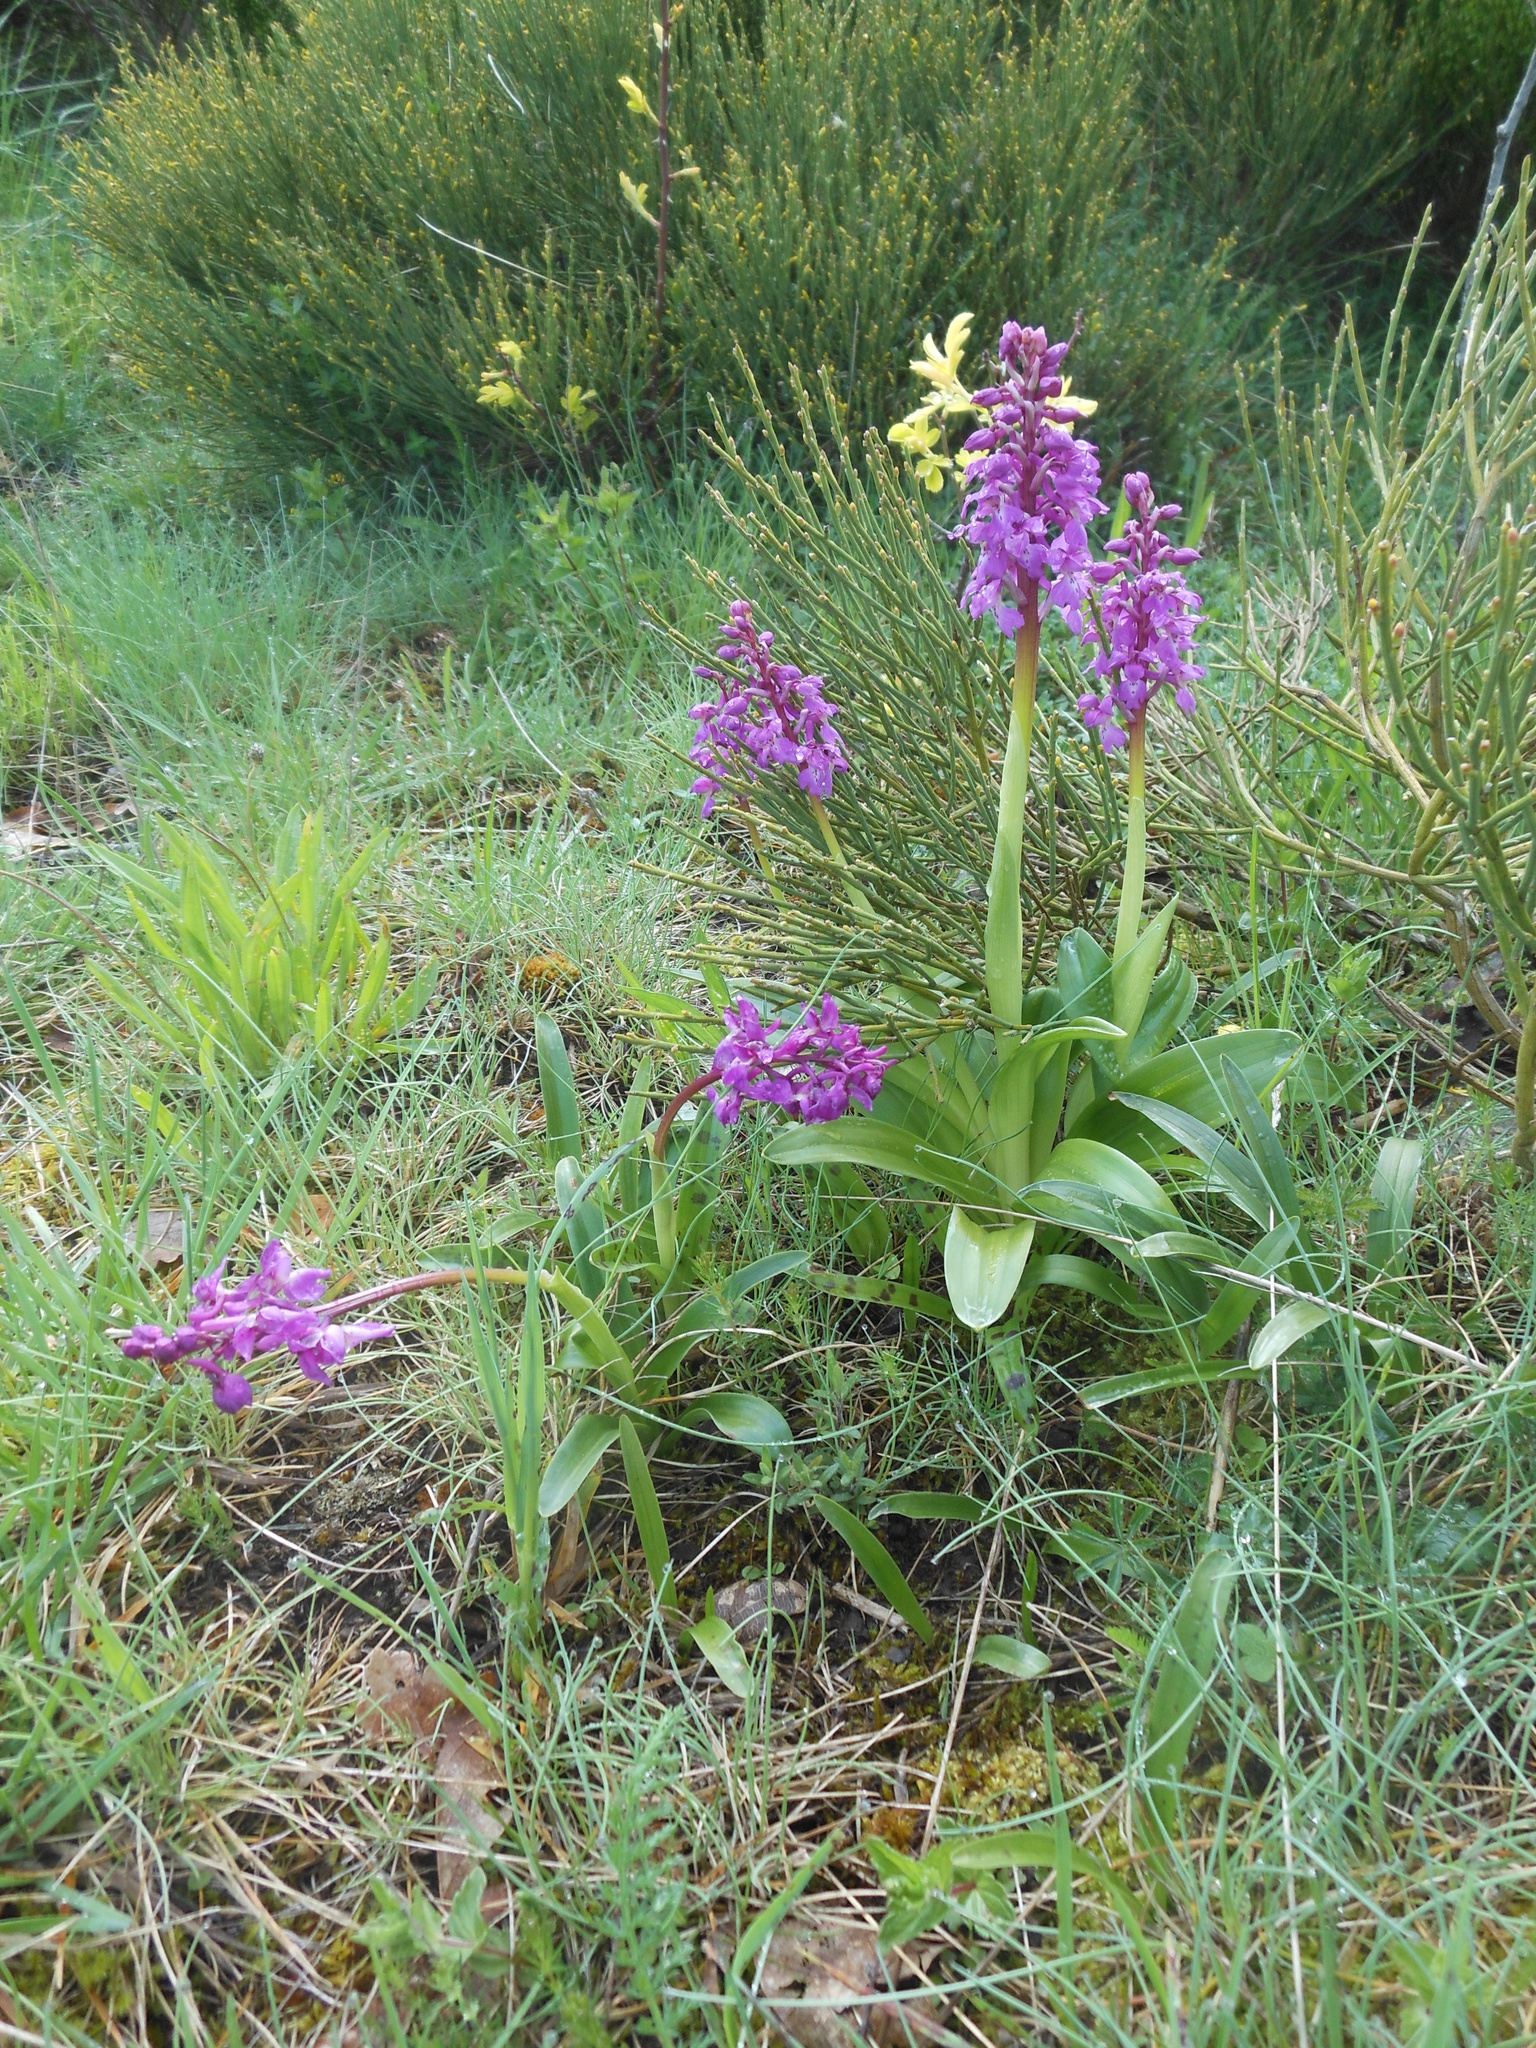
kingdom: Plantae
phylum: Tracheophyta
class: Liliopsida
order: Asparagales
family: Orchidaceae
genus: Orchis
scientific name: Orchis mascula
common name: Early-purple orchid
